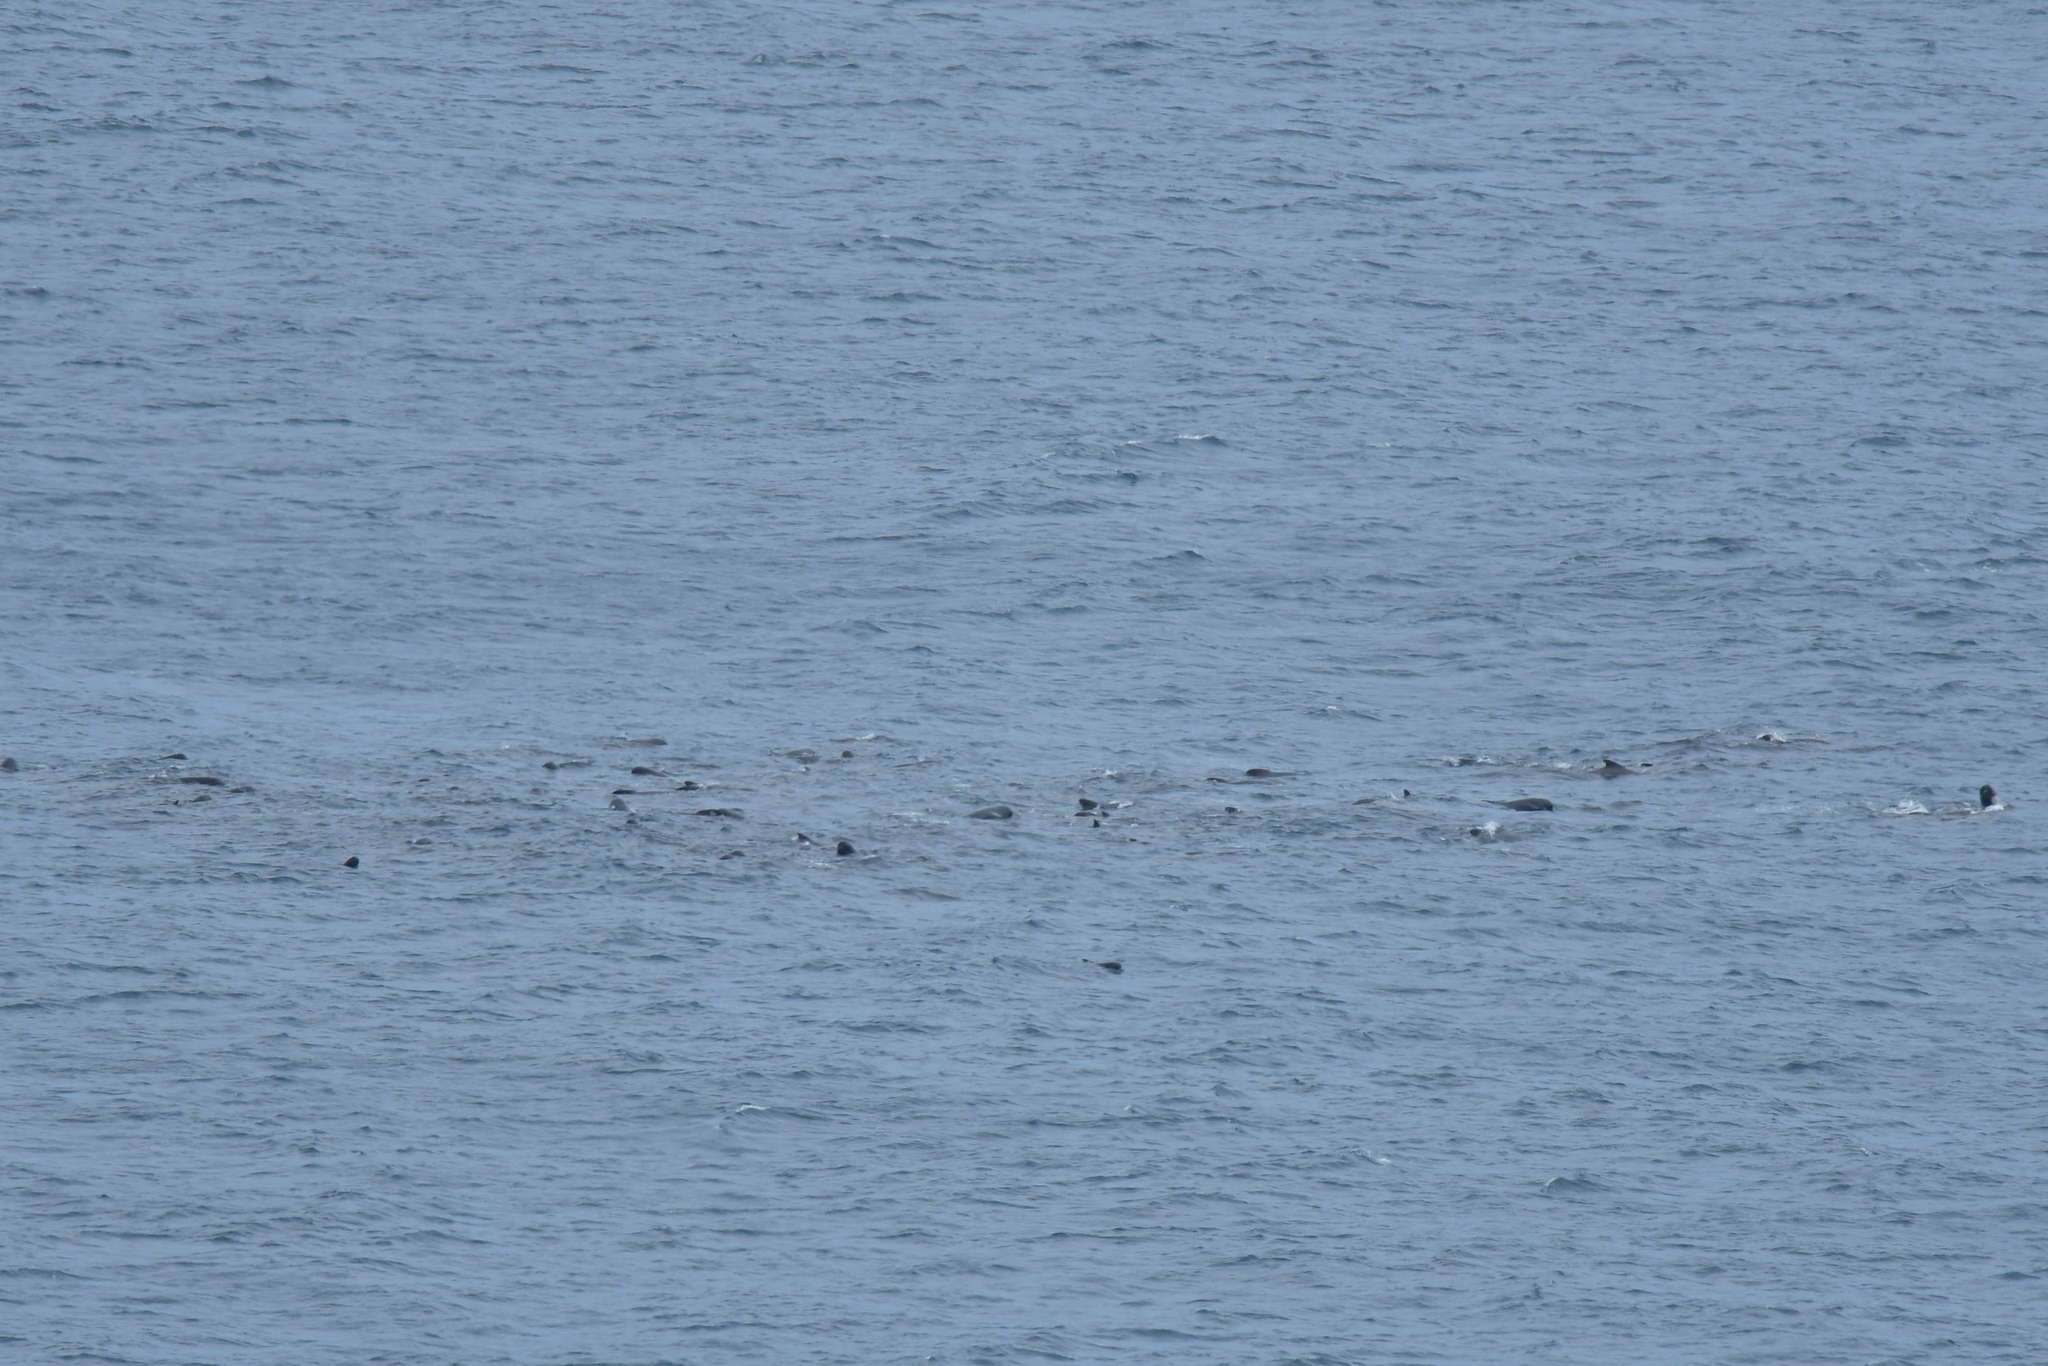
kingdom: Animalia
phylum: Chordata
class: Mammalia
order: Cetacea
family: Delphinidae
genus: Globicephala
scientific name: Globicephala melas
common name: Long-finned pilot whale
